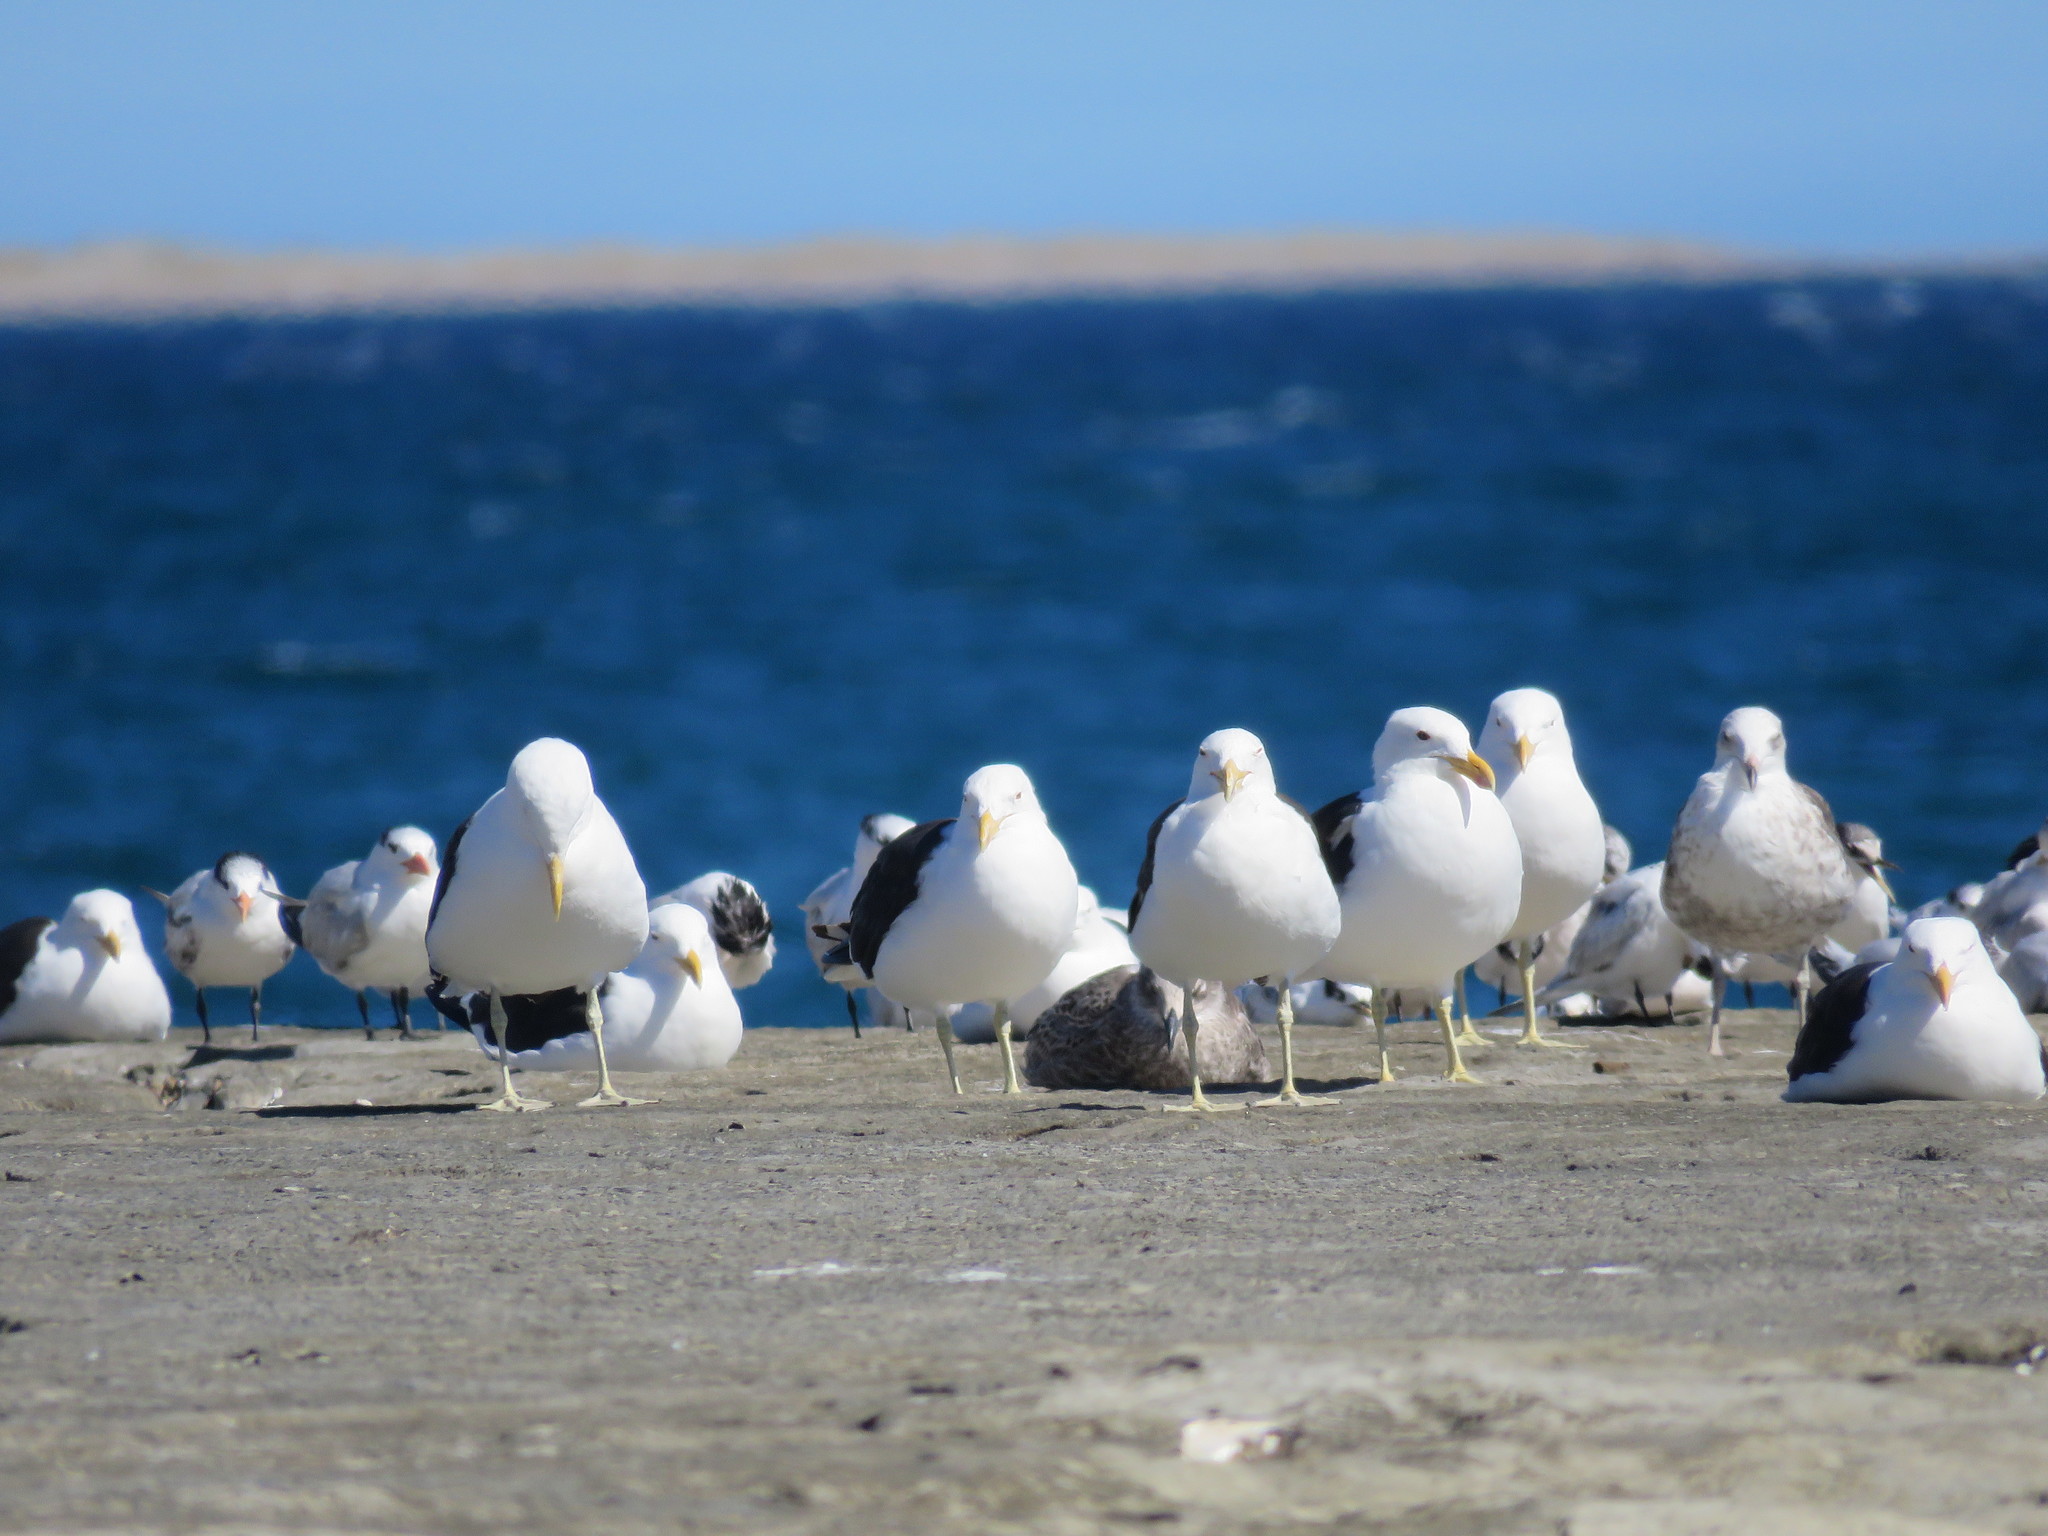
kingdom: Animalia
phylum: Chordata
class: Aves
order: Charadriiformes
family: Laridae
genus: Larus
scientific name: Larus dominicanus
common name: Kelp gull
